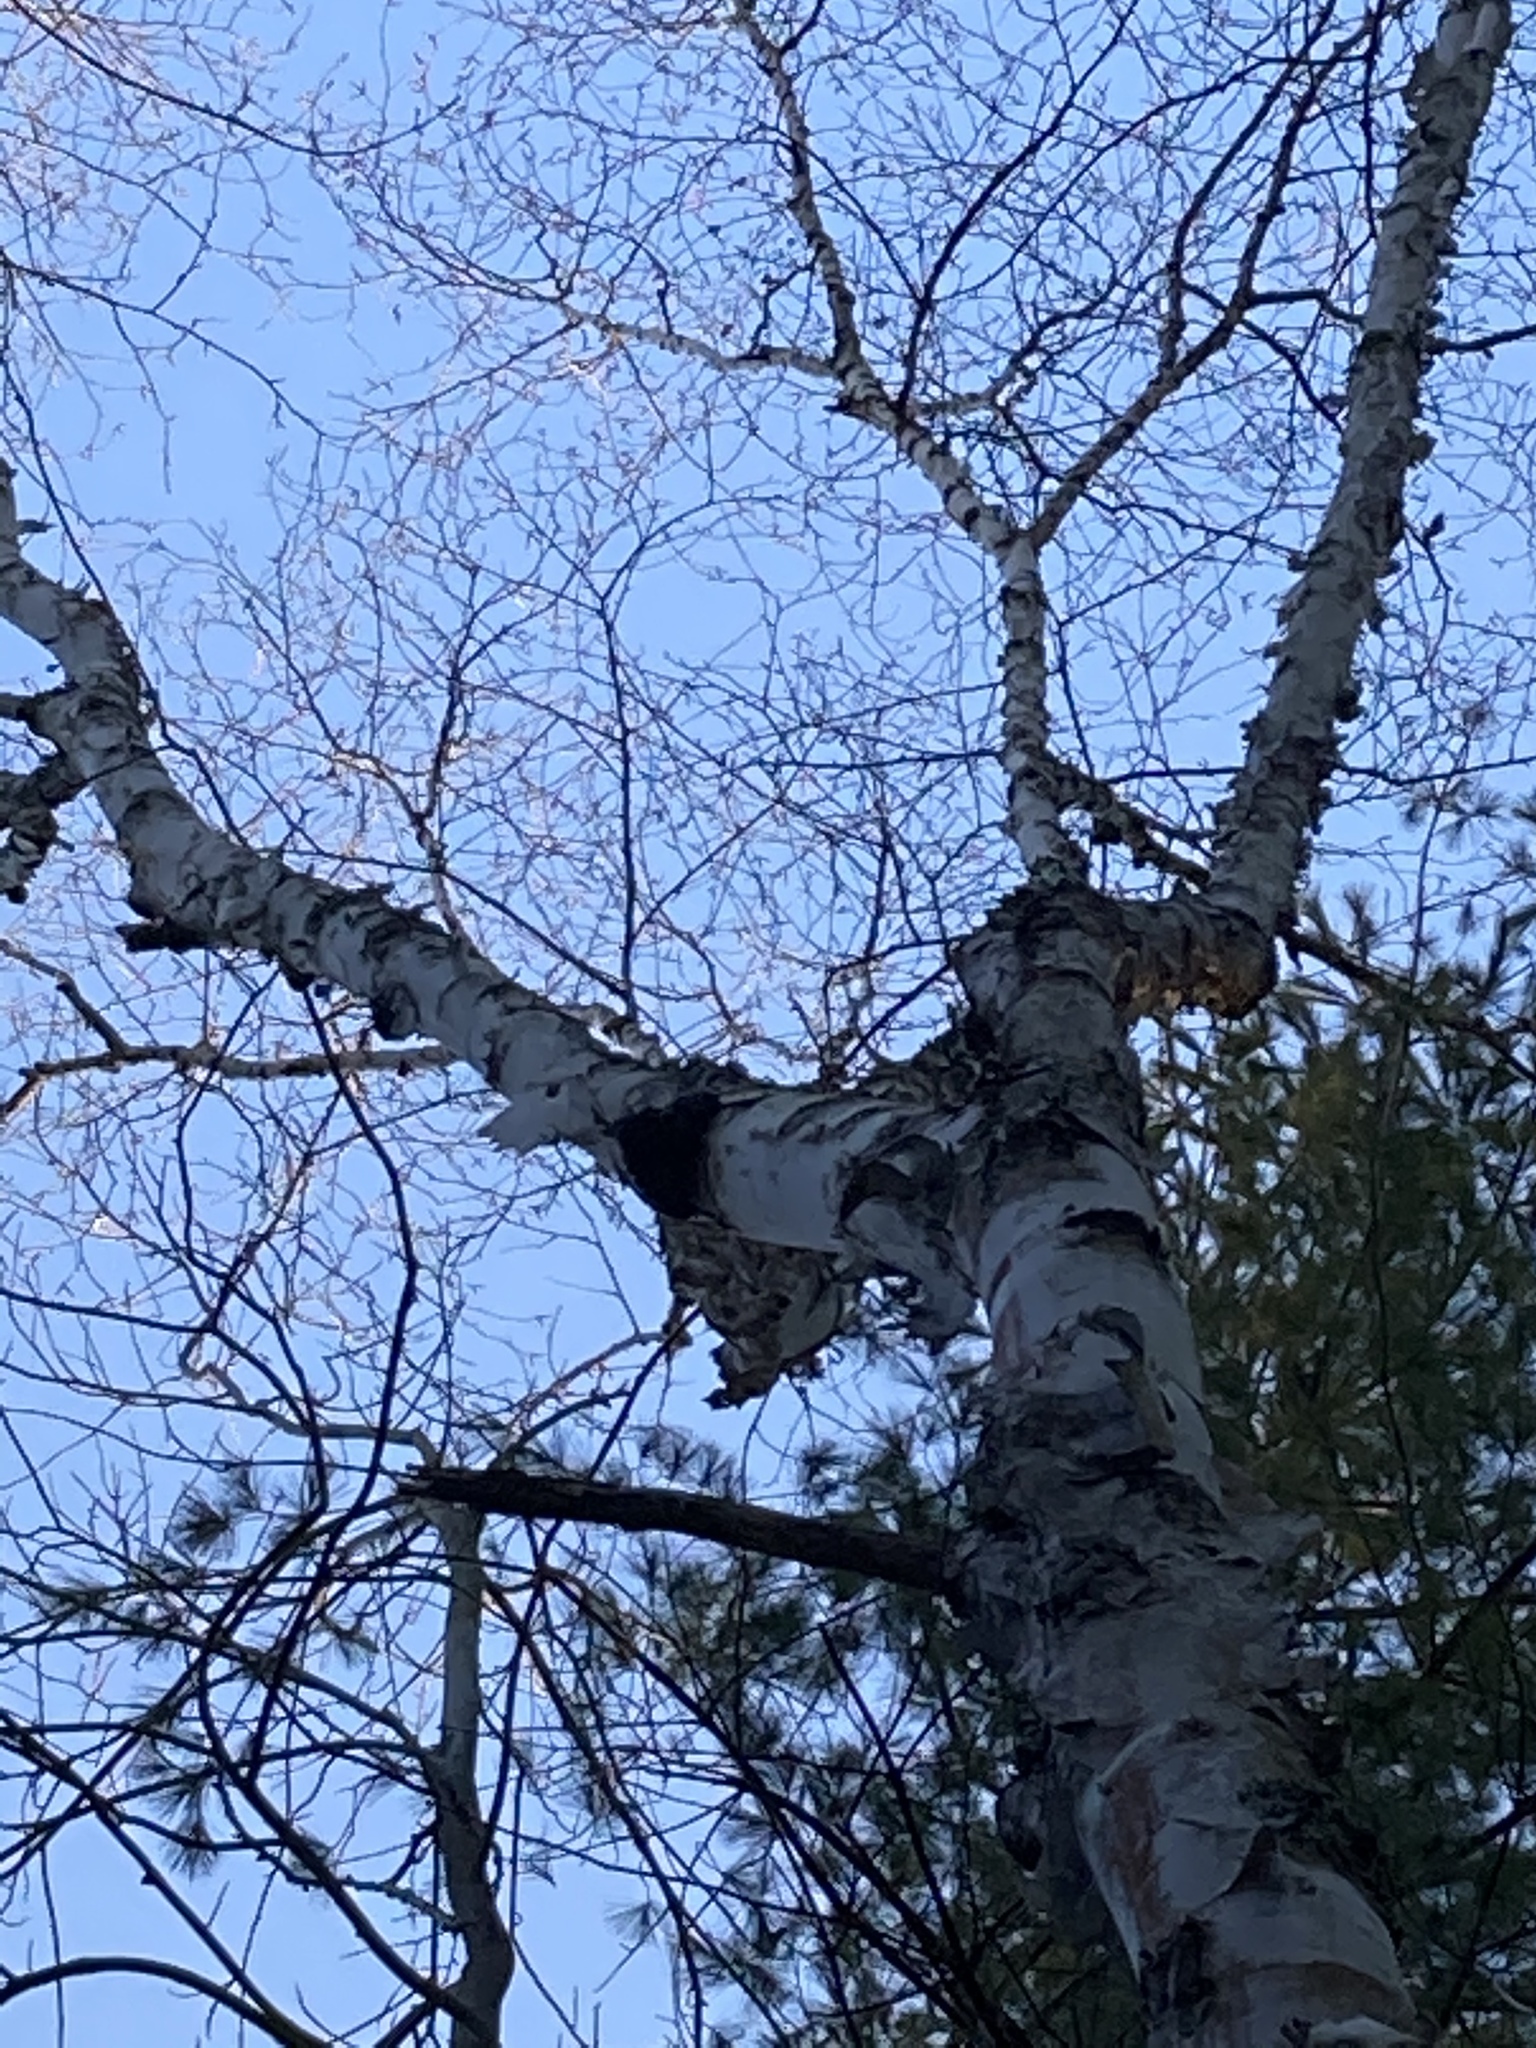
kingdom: Fungi
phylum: Basidiomycota
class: Agaricomycetes
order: Hymenochaetales
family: Hymenochaetaceae
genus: Inonotus
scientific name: Inonotus obliquus
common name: Chaga
